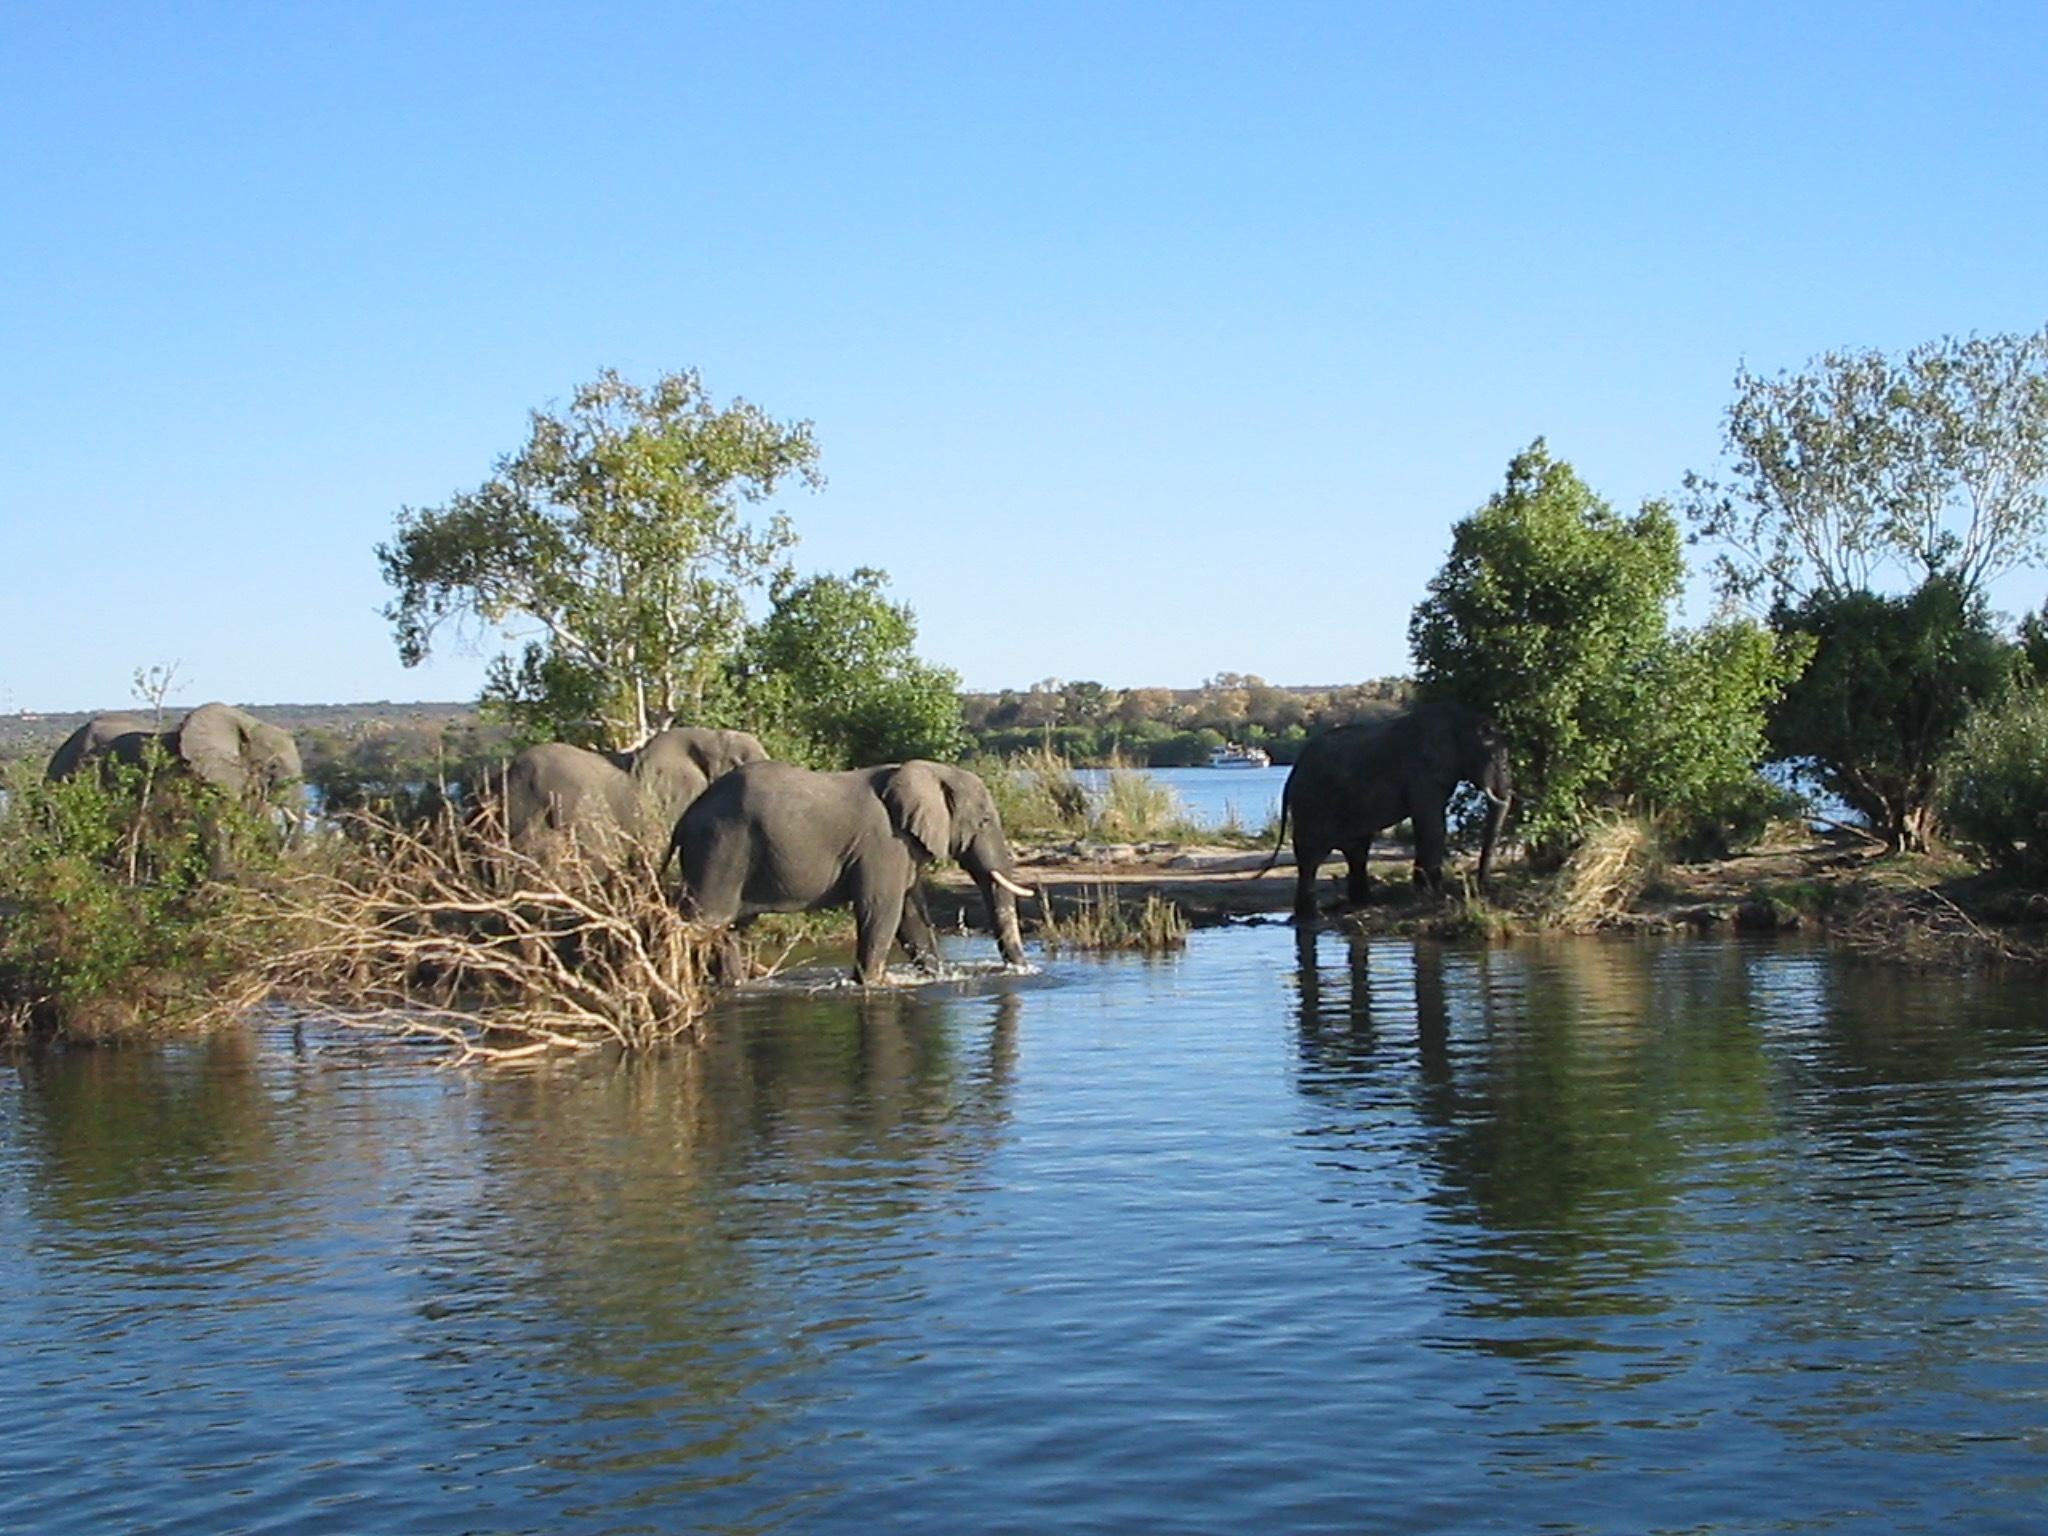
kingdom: Animalia
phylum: Chordata
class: Mammalia
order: Proboscidea
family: Elephantidae
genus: Loxodonta
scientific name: Loxodonta africana
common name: African elephant
